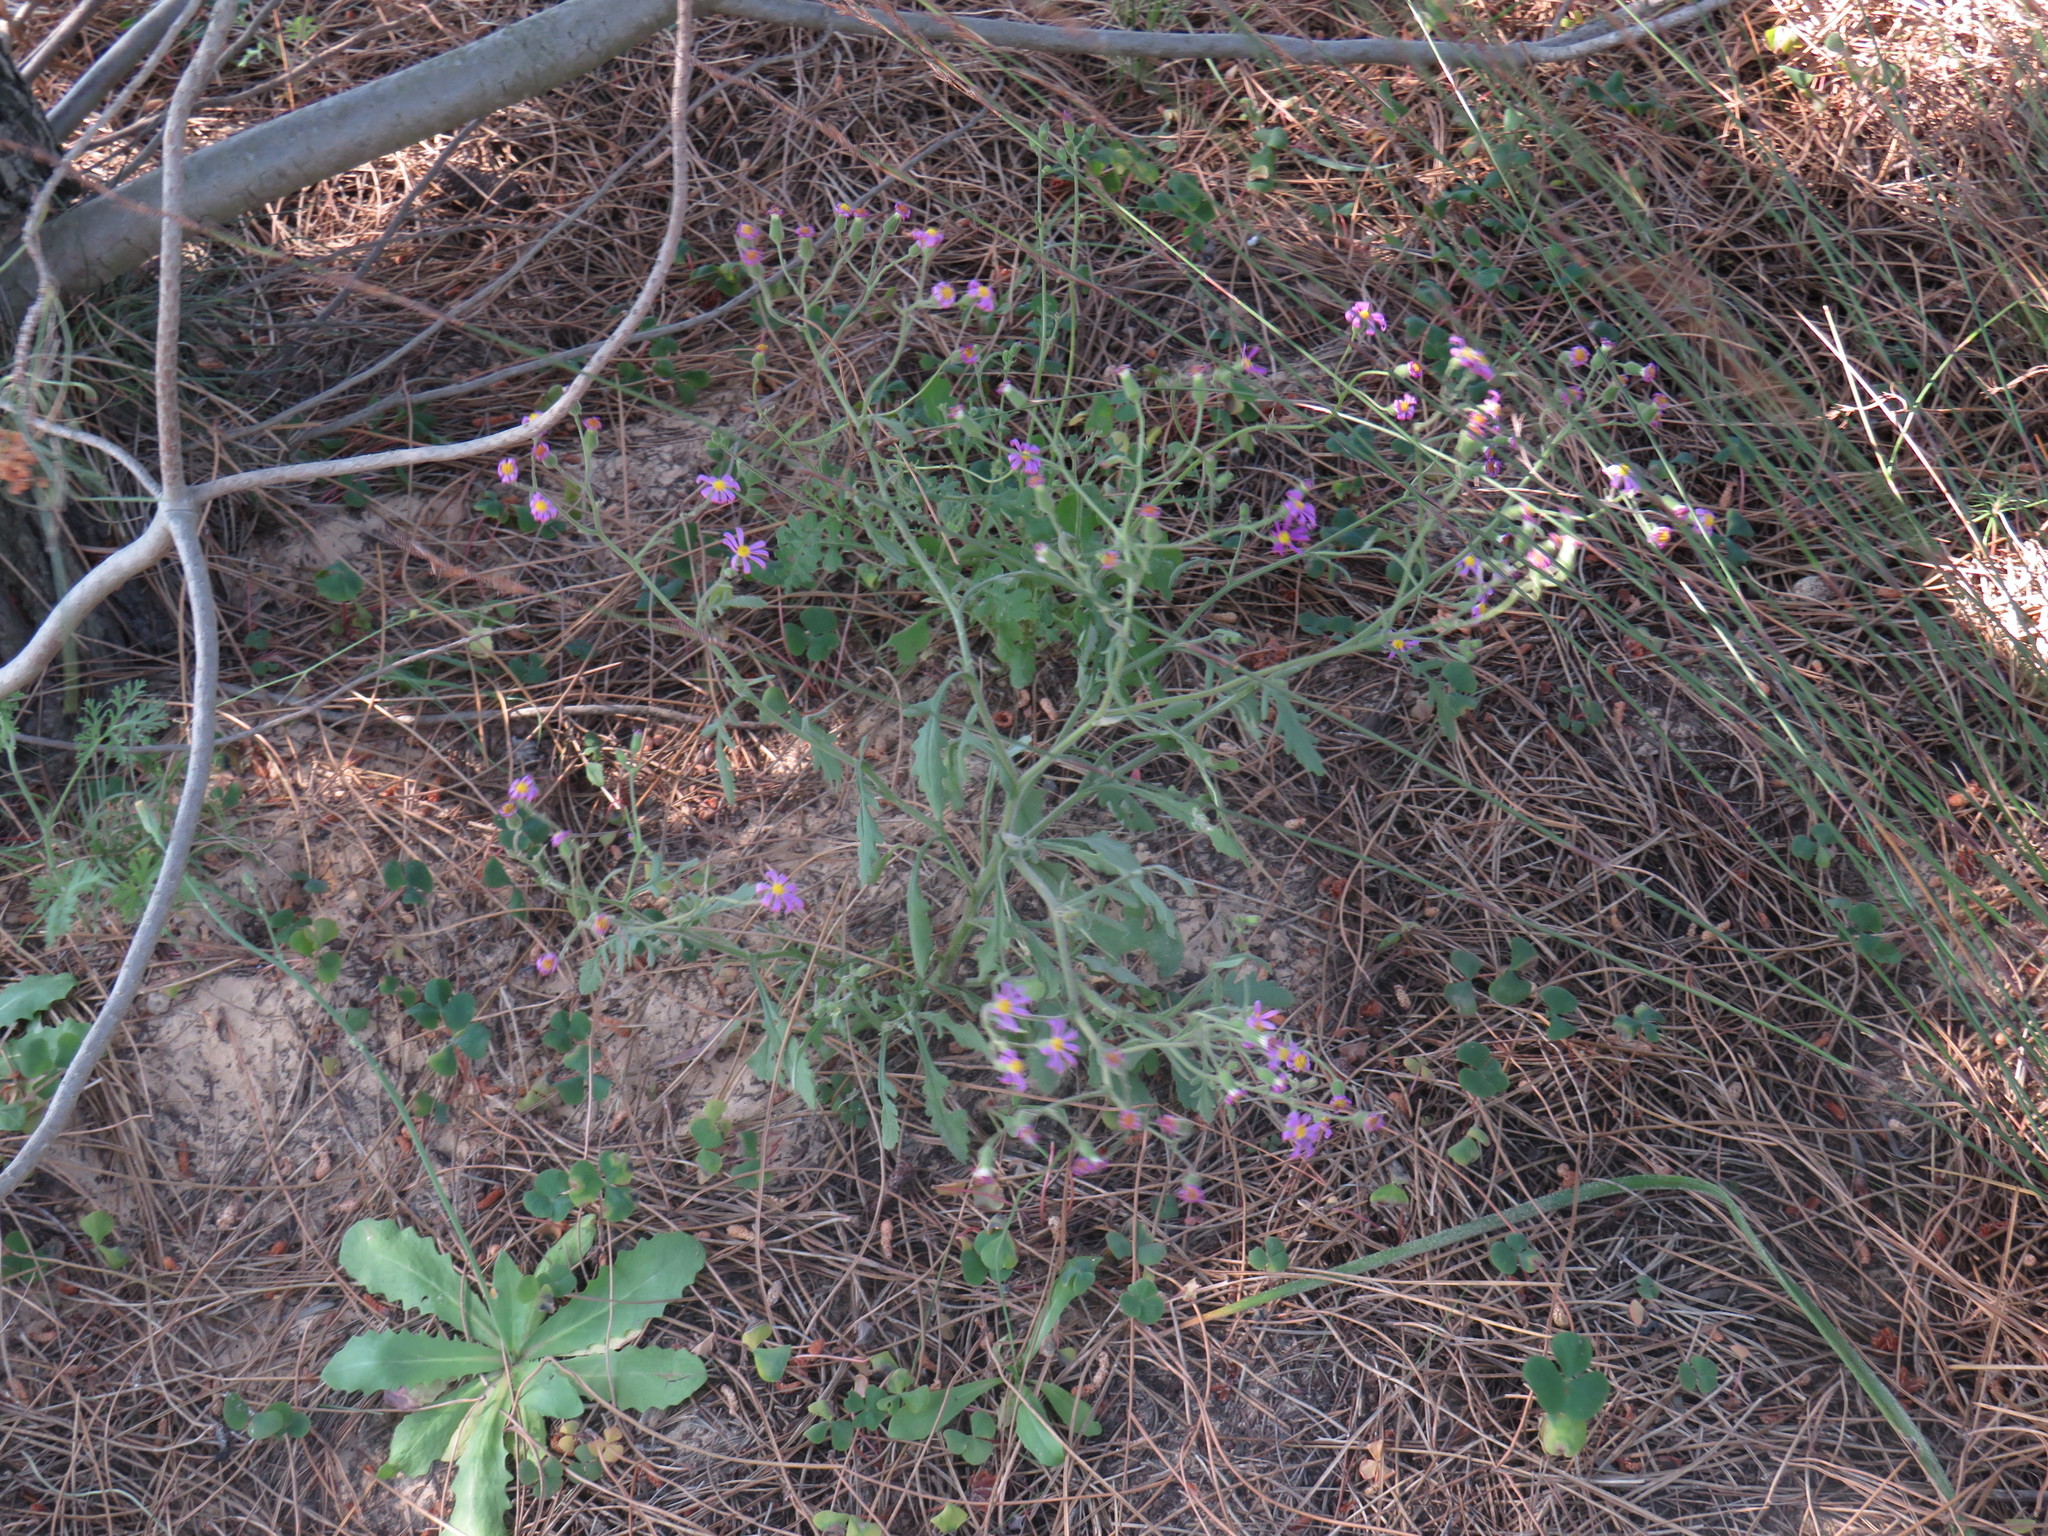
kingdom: Plantae
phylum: Tracheophyta
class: Magnoliopsida
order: Asterales
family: Asteraceae
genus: Senecio
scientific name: Senecio arenarius
